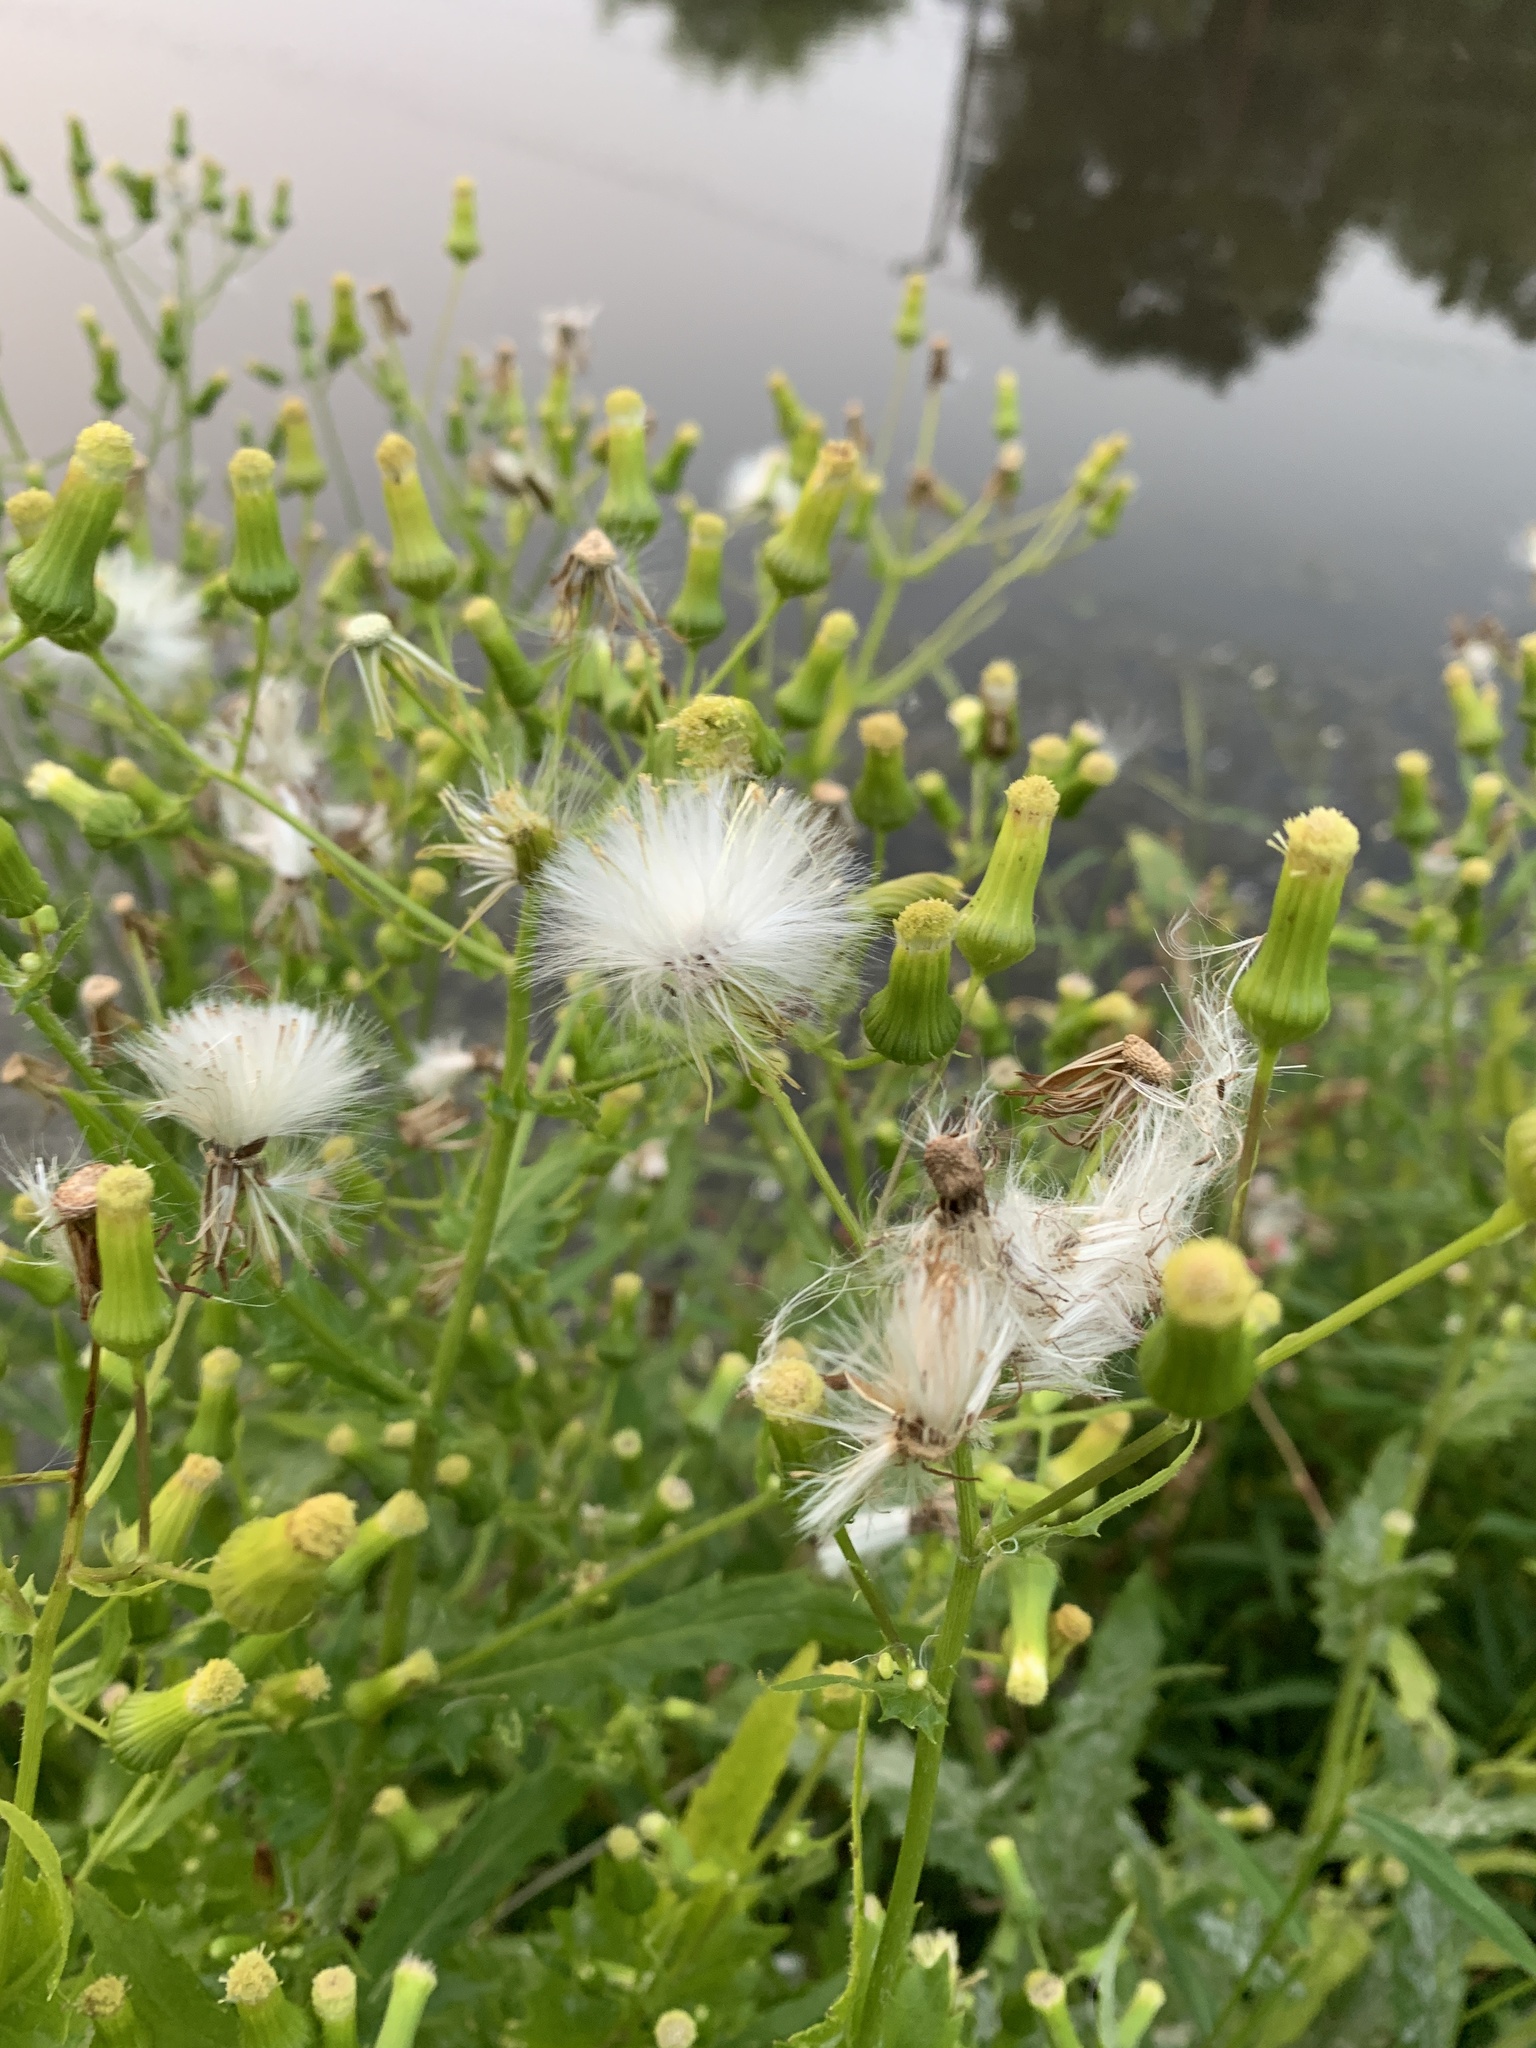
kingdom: Plantae
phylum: Tracheophyta
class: Magnoliopsida
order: Asterales
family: Asteraceae
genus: Erechtites
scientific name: Erechtites hieraciifolius
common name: American burnweed
